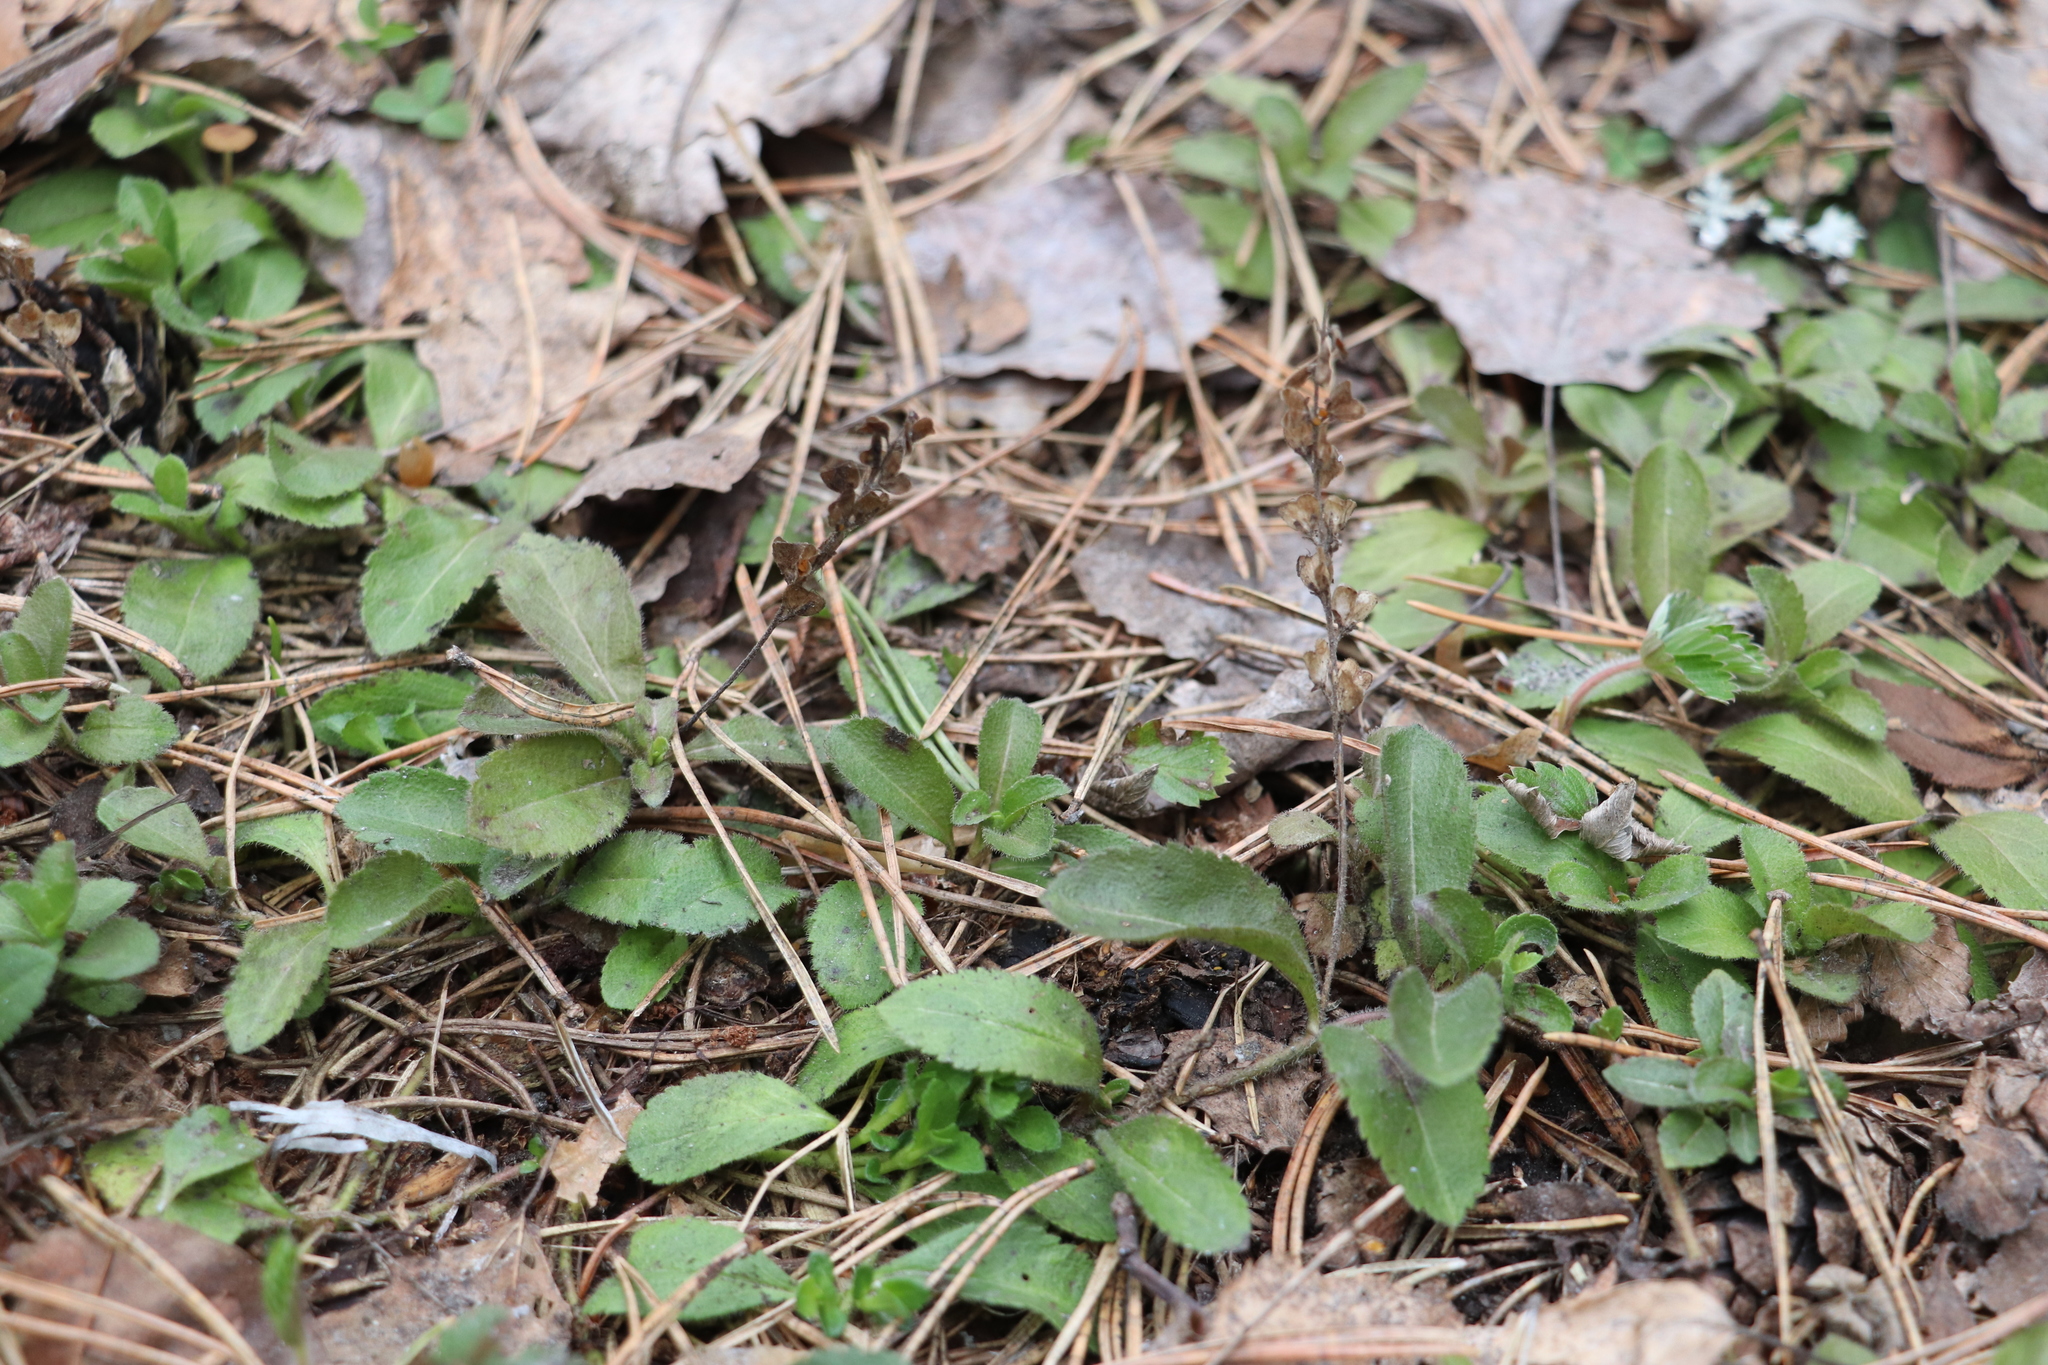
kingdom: Plantae
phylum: Tracheophyta
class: Magnoliopsida
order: Lamiales
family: Plantaginaceae
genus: Veronica
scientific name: Veronica officinalis
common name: Common speedwell
